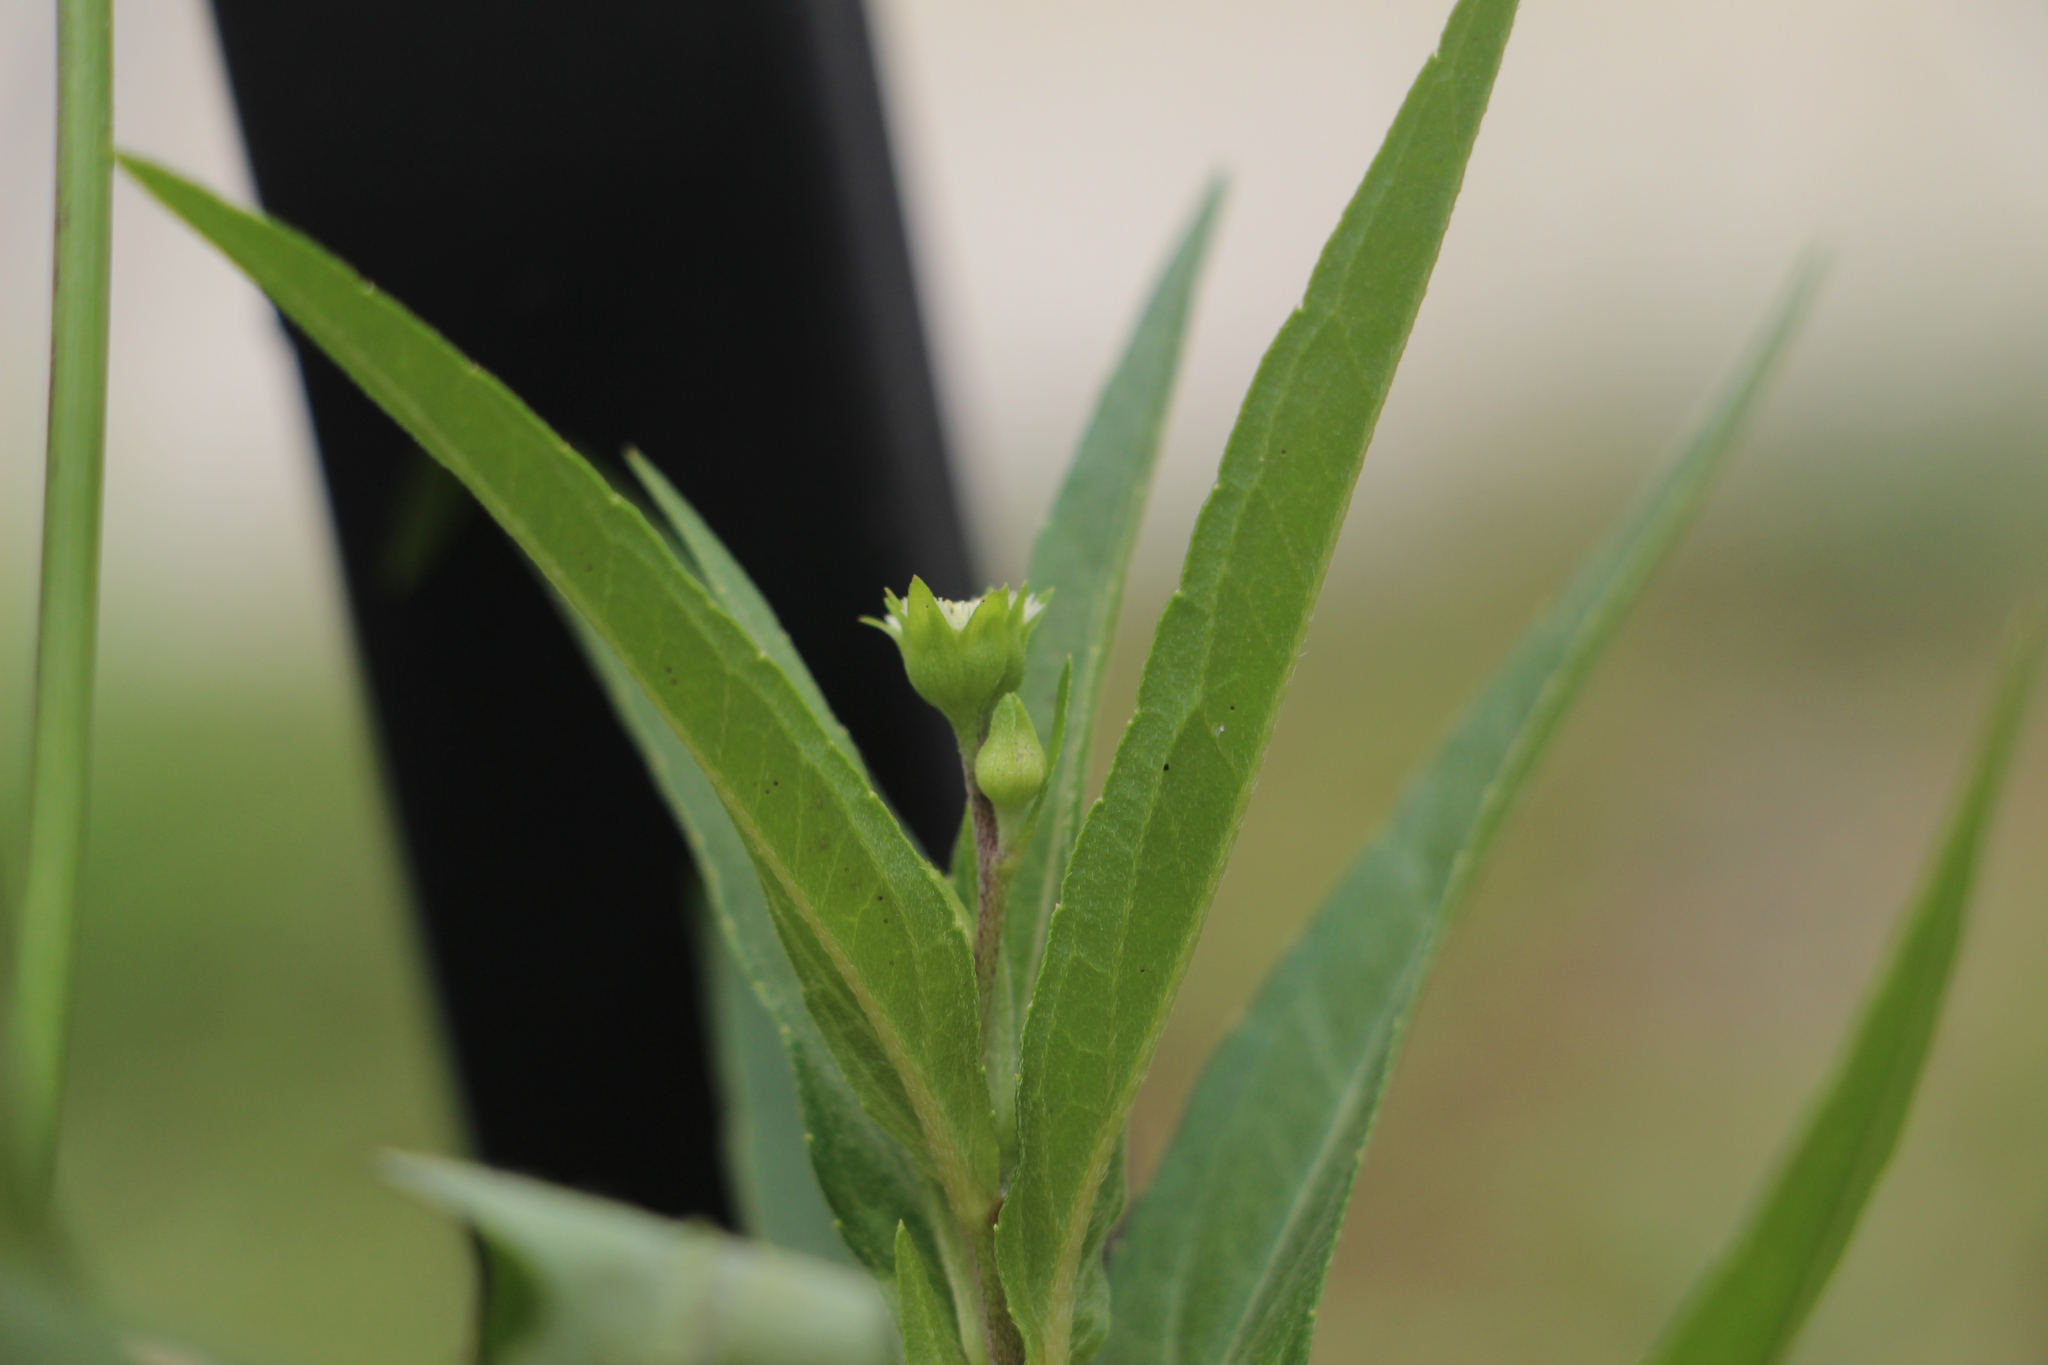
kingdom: Plantae
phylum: Tracheophyta
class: Magnoliopsida
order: Asterales
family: Asteraceae
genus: Eclipta
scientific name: Eclipta prostrata
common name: False daisy
